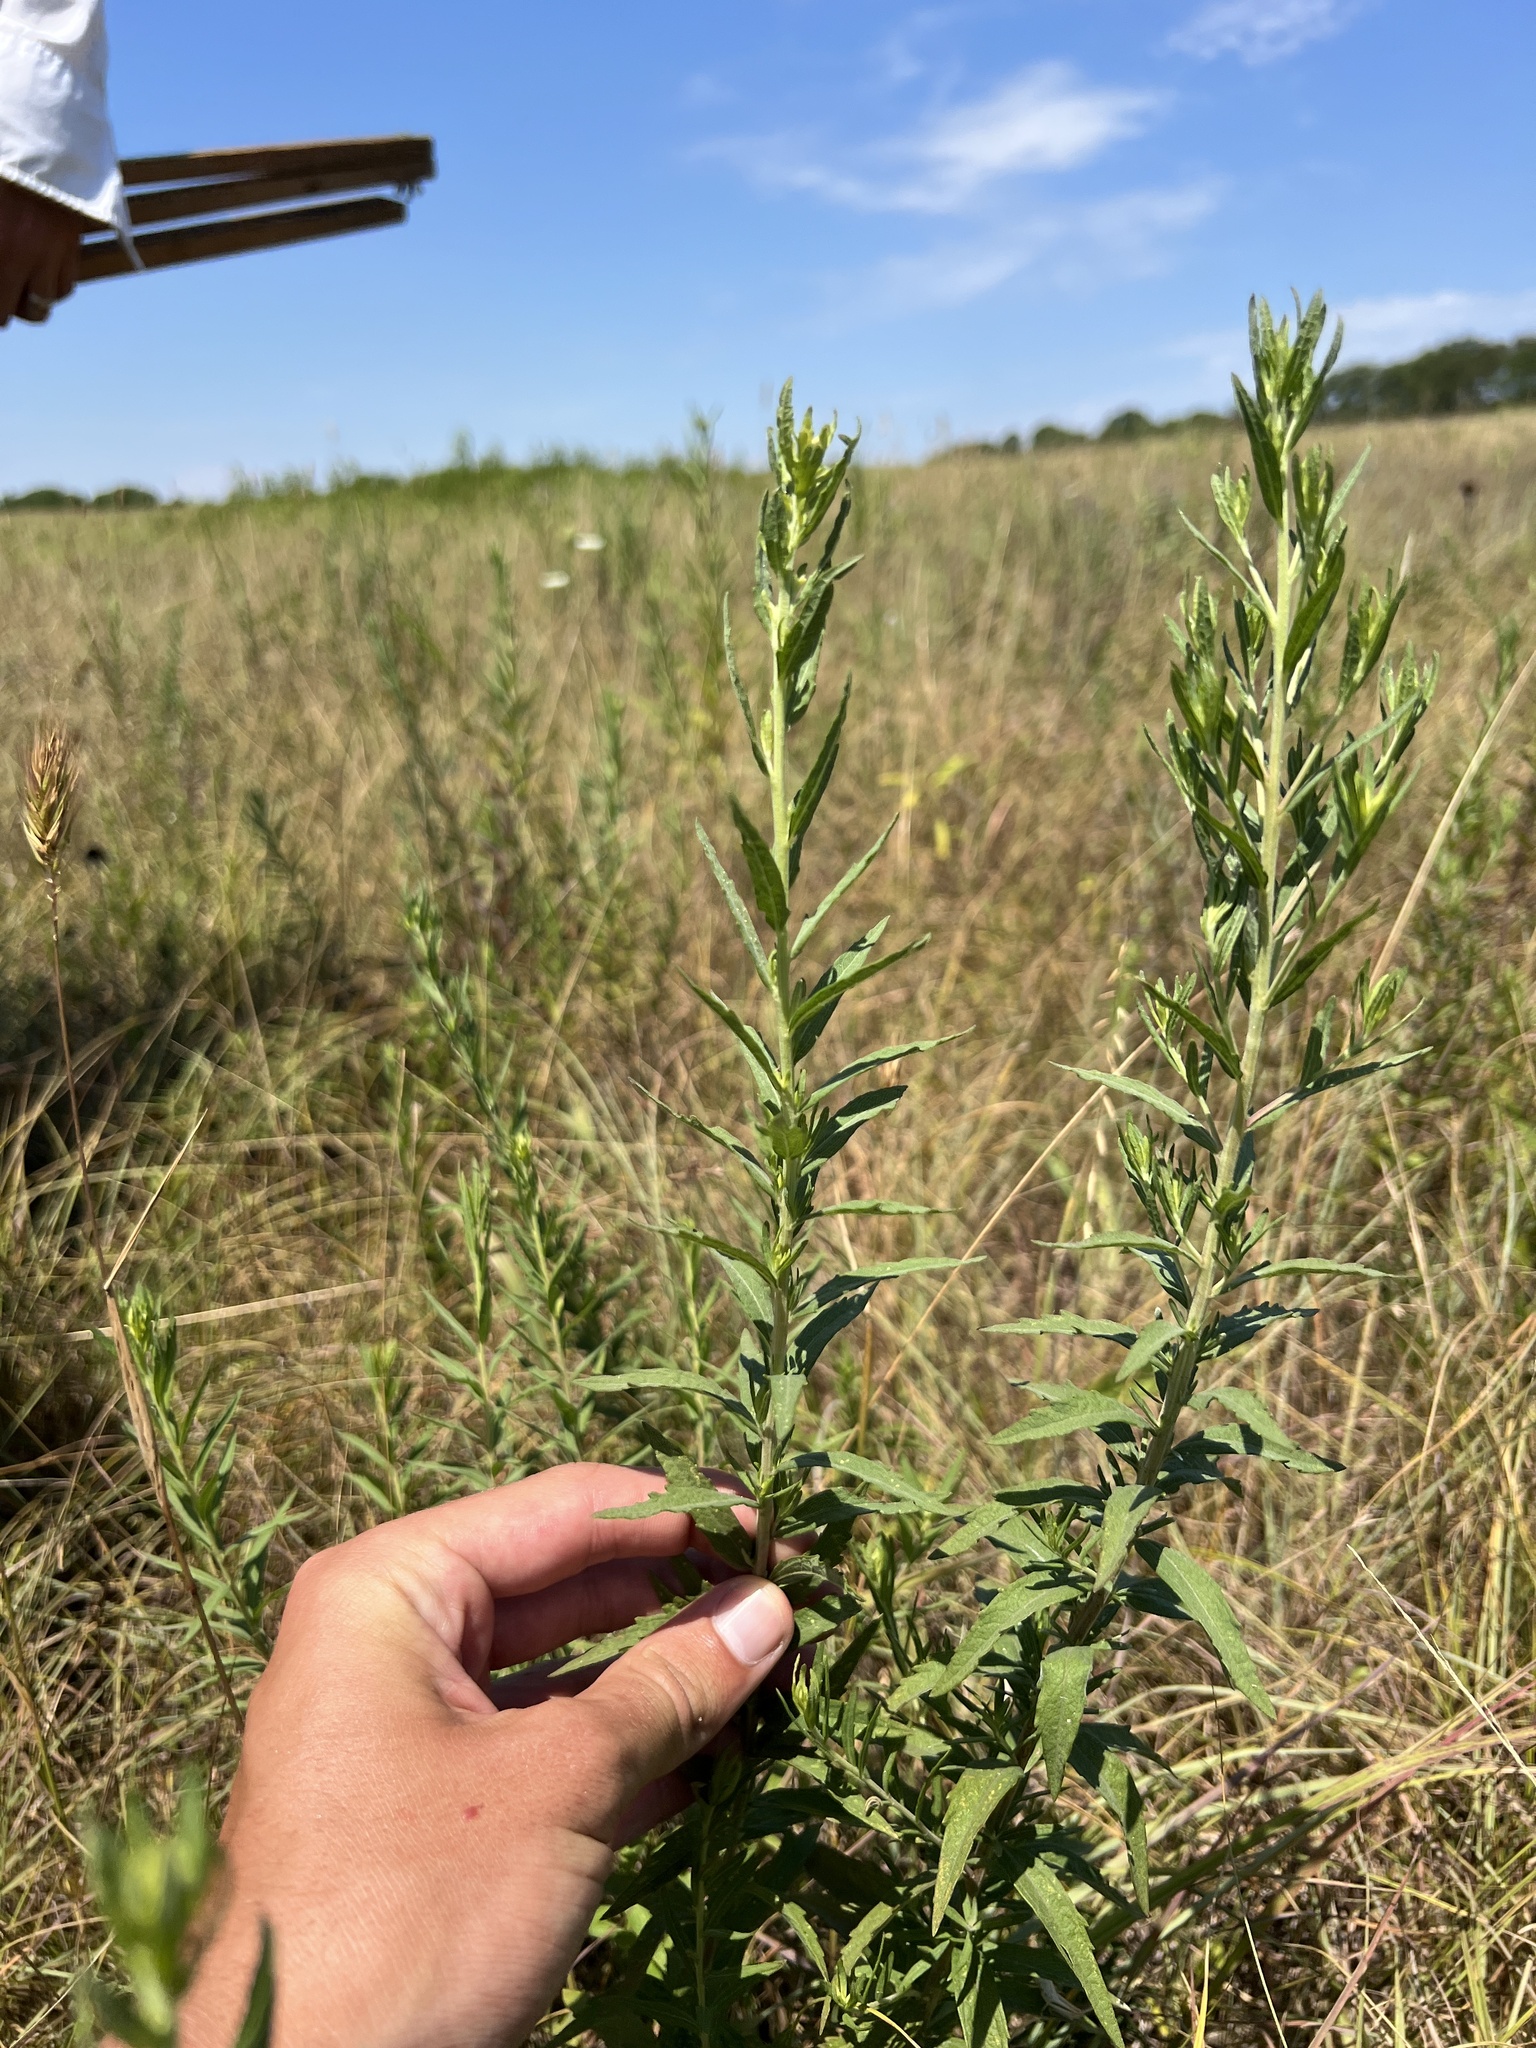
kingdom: Plantae
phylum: Tracheophyta
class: Magnoliopsida
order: Asterales
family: Asteraceae
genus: Brickellia
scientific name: Brickellia eupatorioides
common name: False boneset
